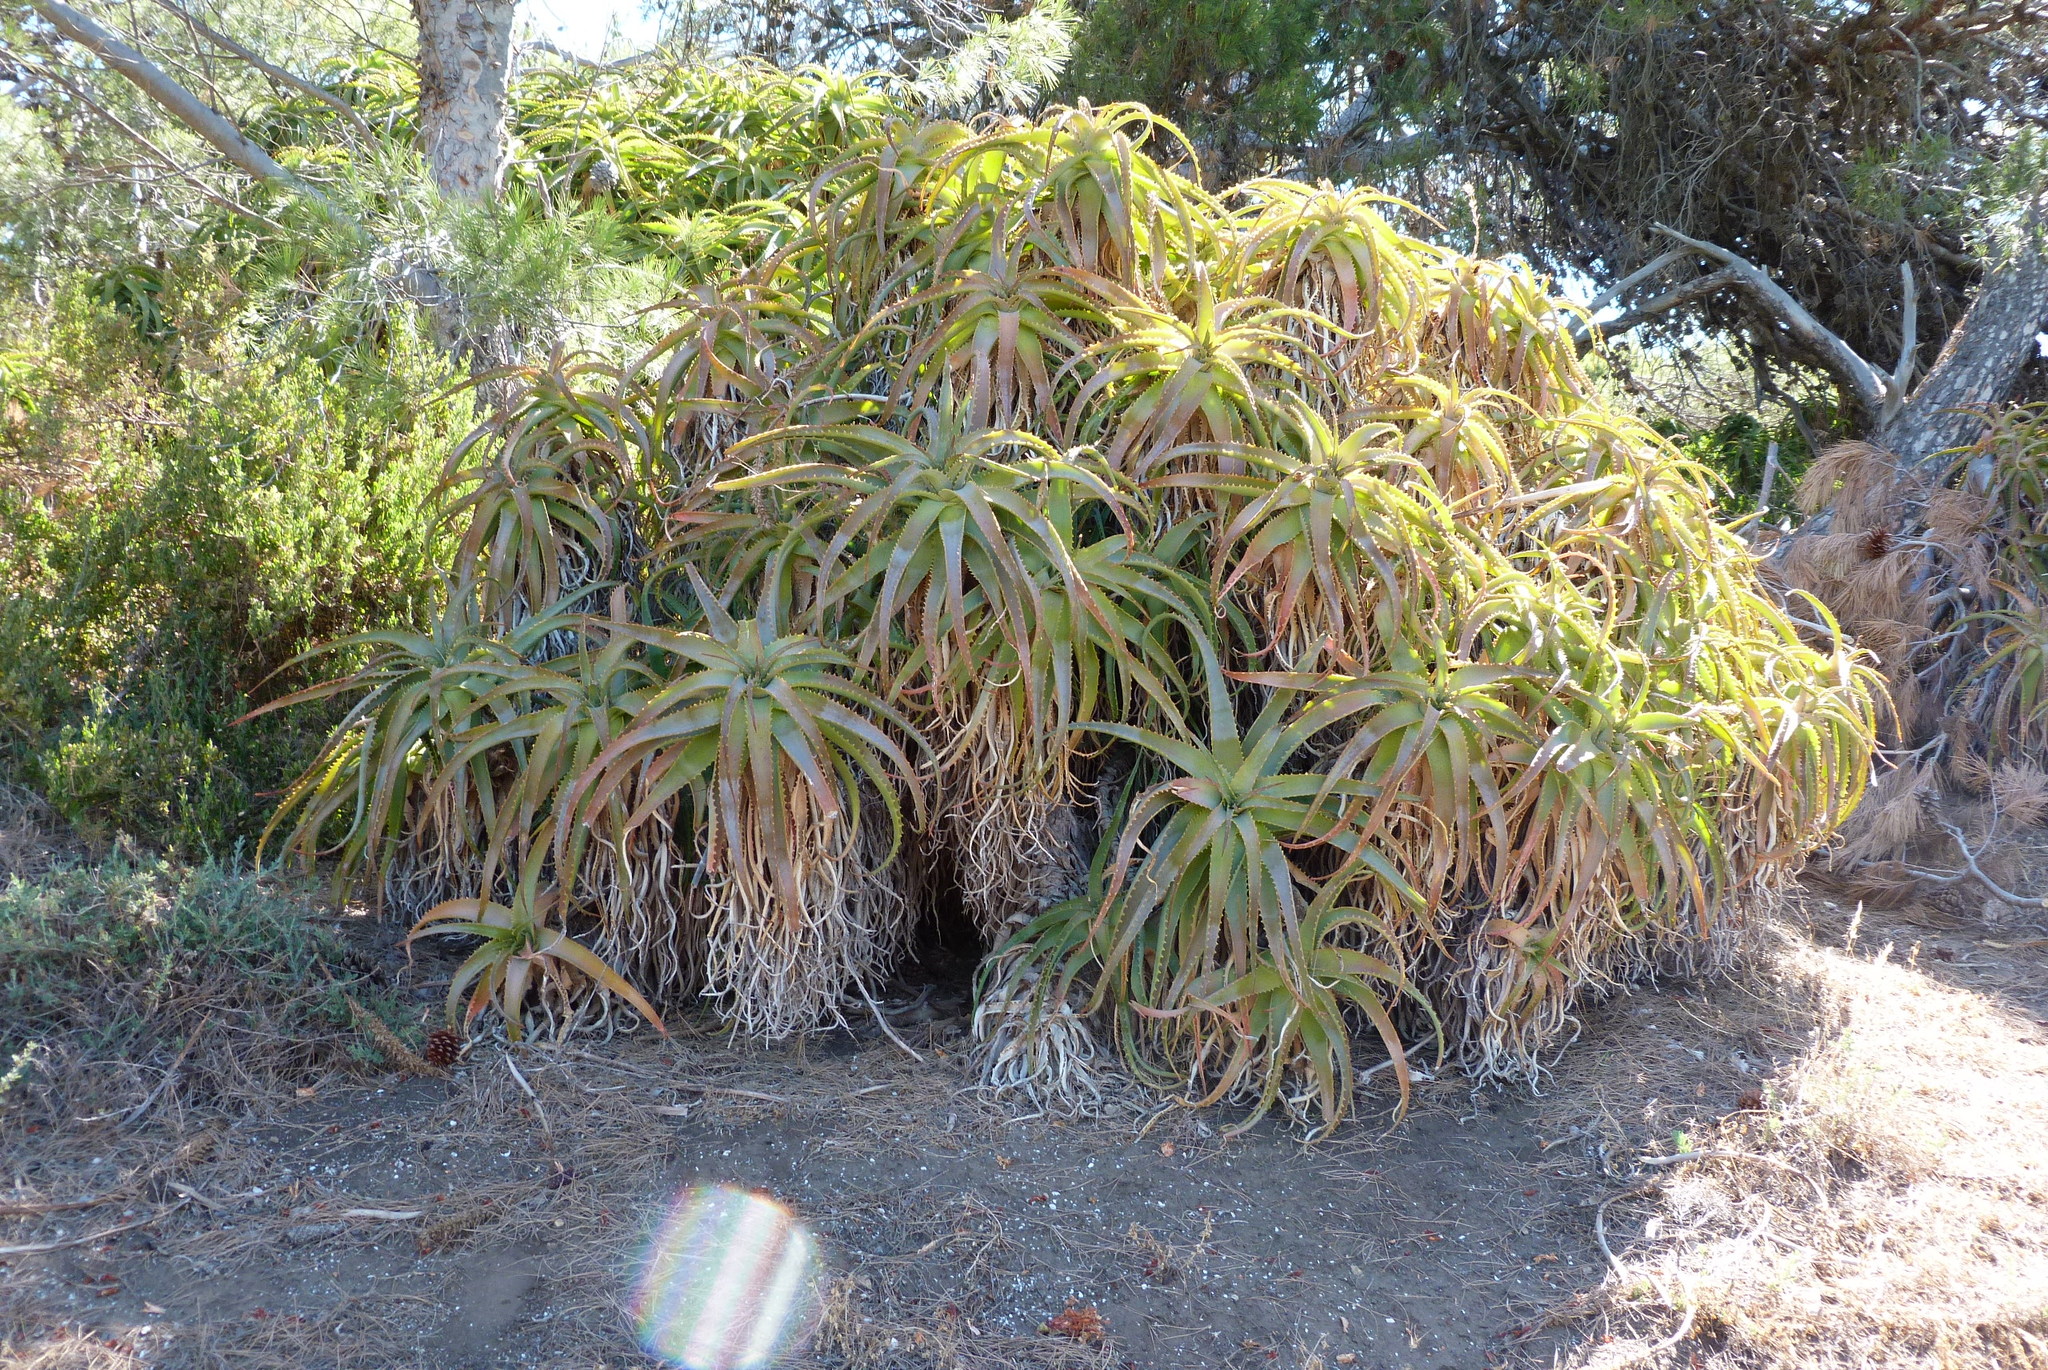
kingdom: Plantae
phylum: Tracheophyta
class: Liliopsida
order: Asparagales
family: Asphodelaceae
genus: Aloe
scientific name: Aloe arborescens
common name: Candelabra aloe
